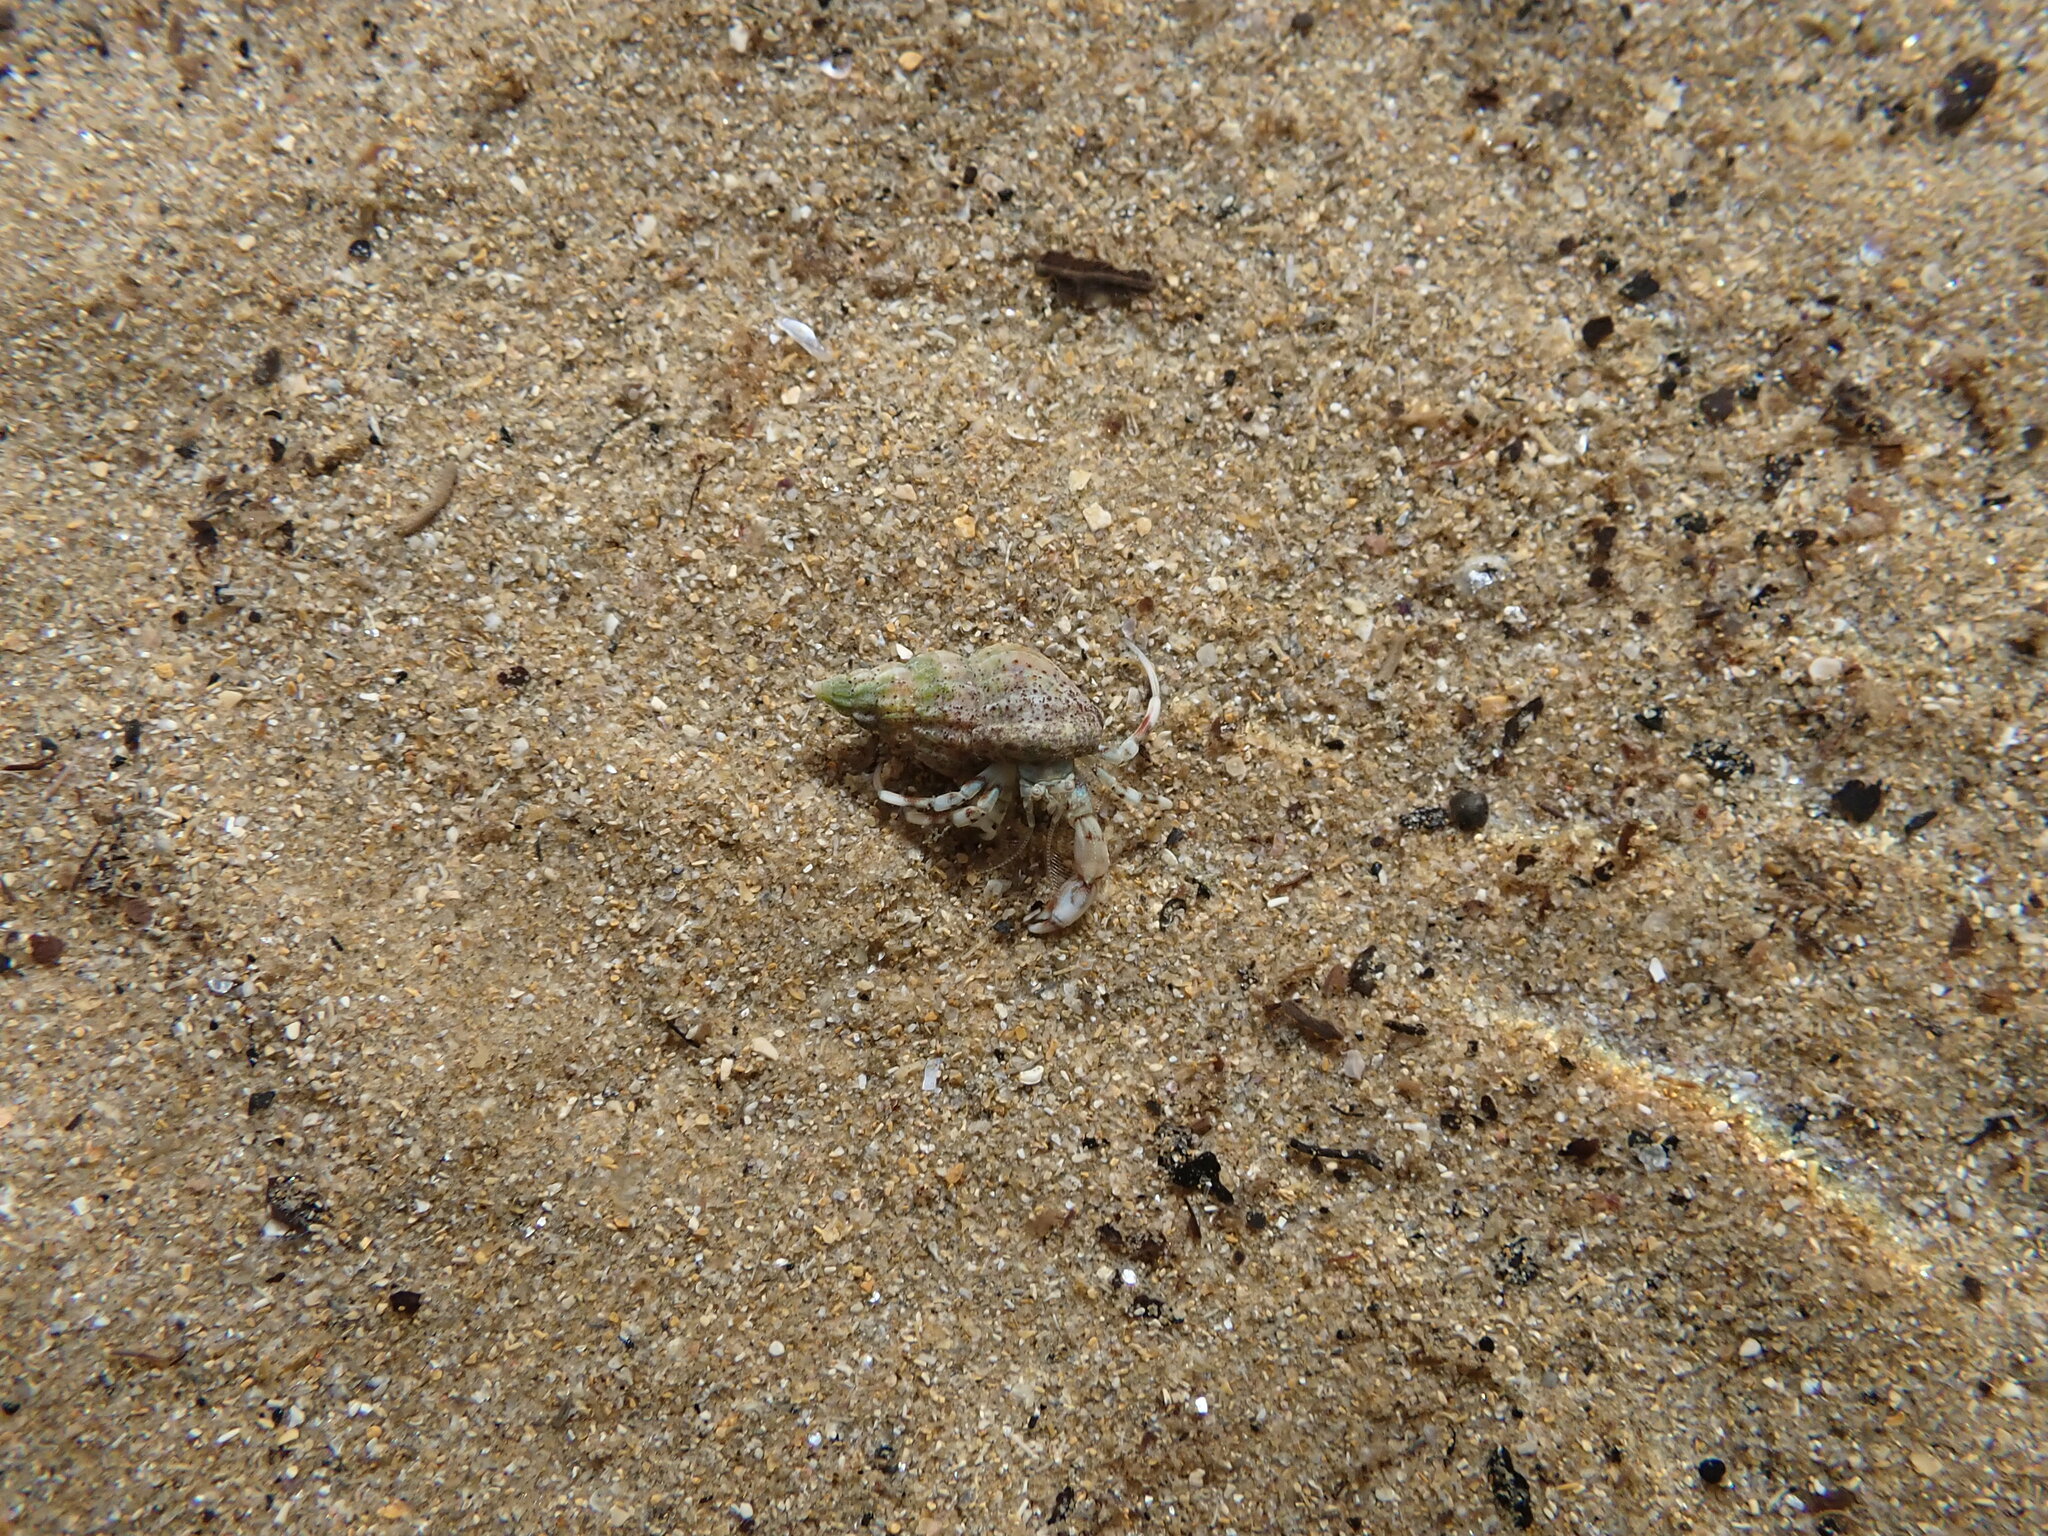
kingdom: Animalia
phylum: Arthropoda
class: Malacostraca
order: Decapoda
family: Diogenidae
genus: Diogenes
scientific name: Diogenes pugilator
